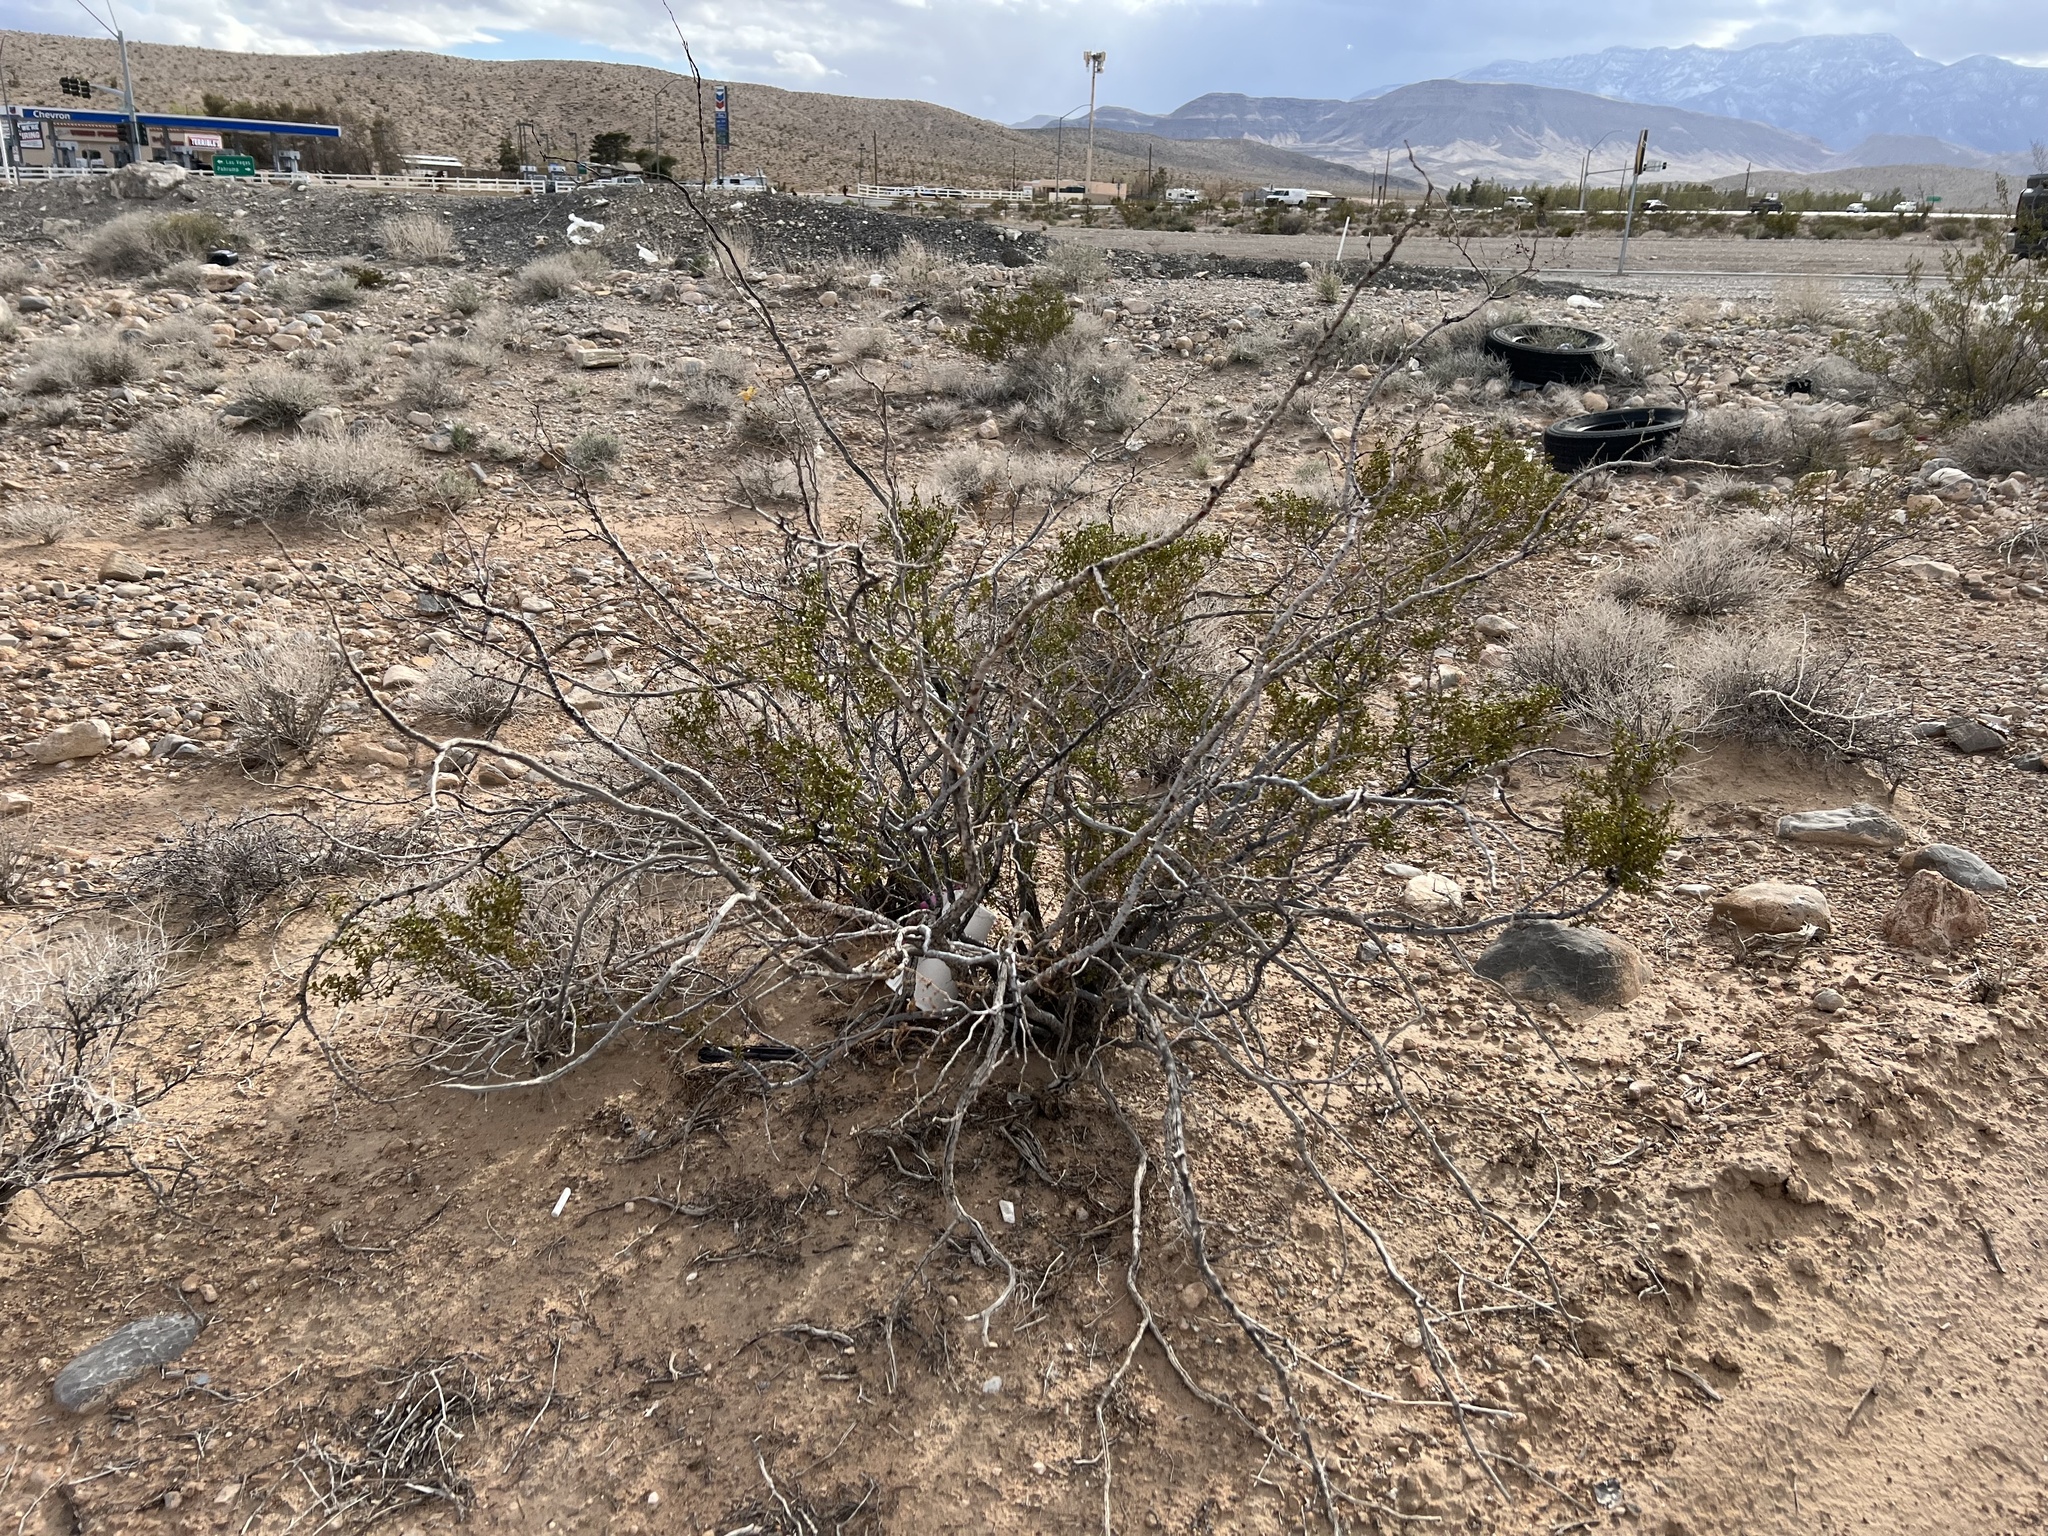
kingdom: Plantae
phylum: Tracheophyta
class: Magnoliopsida
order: Zygophyllales
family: Zygophyllaceae
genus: Larrea
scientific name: Larrea tridentata
